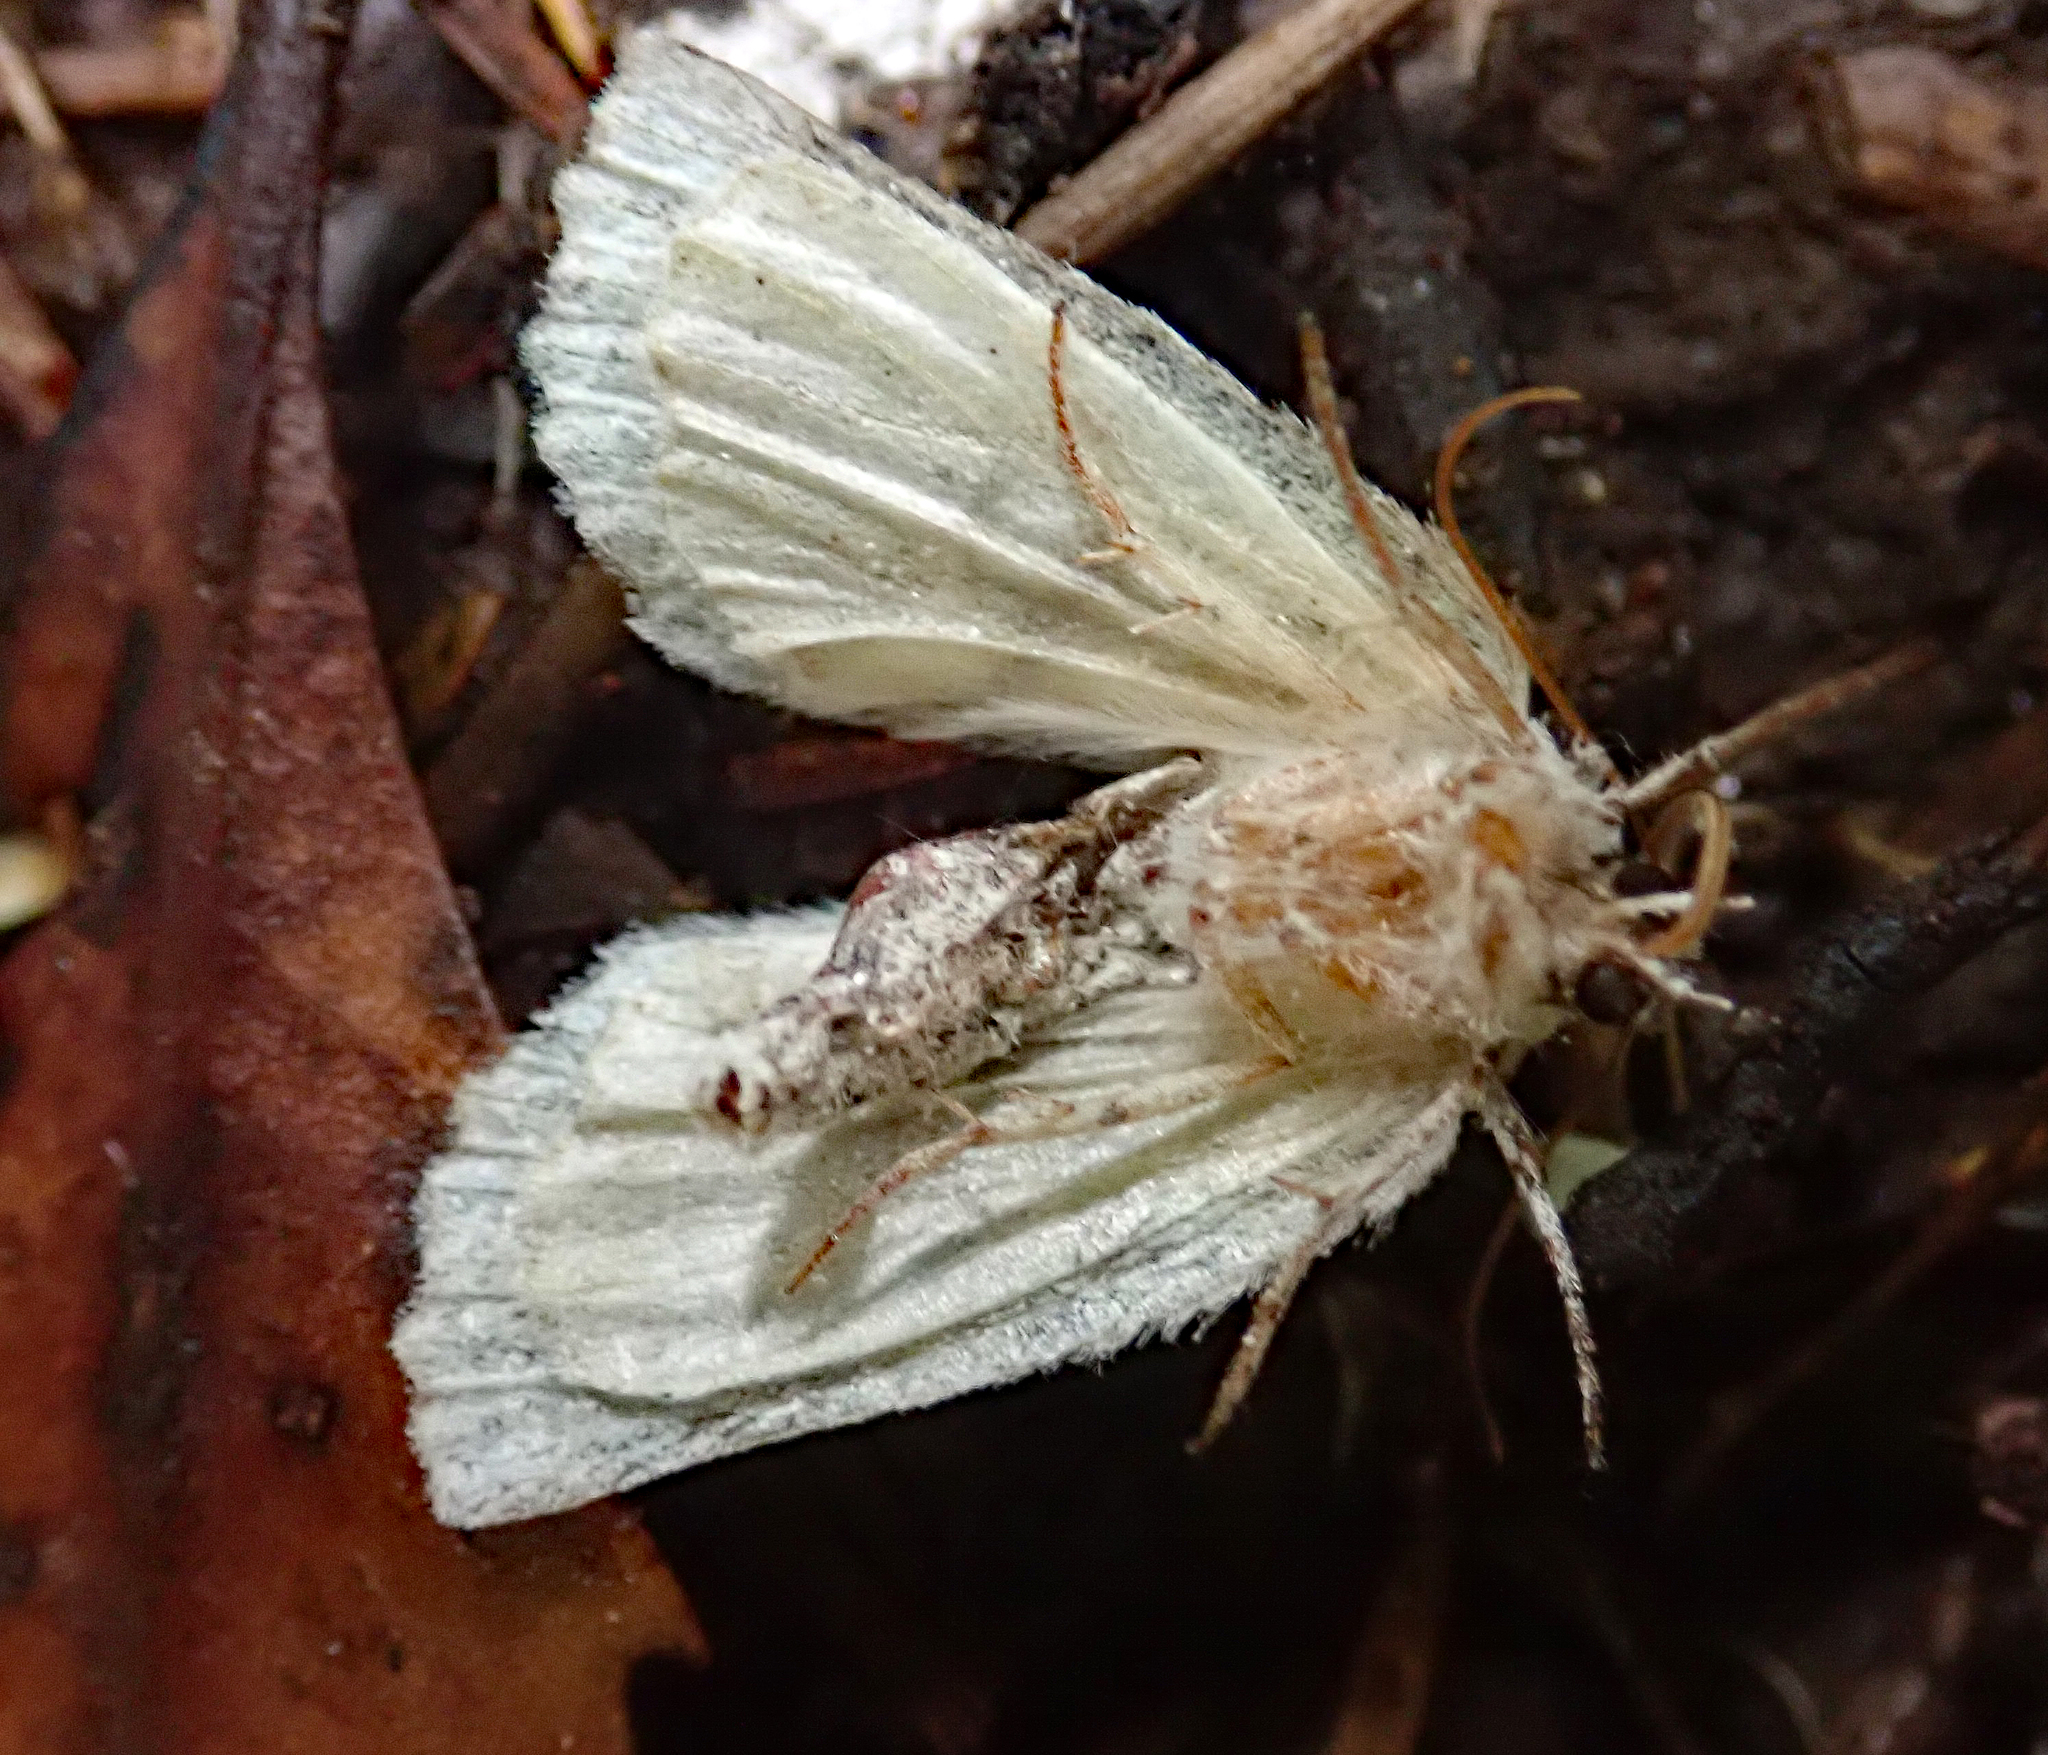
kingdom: Animalia
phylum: Arthropoda
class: Insecta
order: Lepidoptera
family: Geometridae
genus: Declana
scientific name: Declana floccosa
